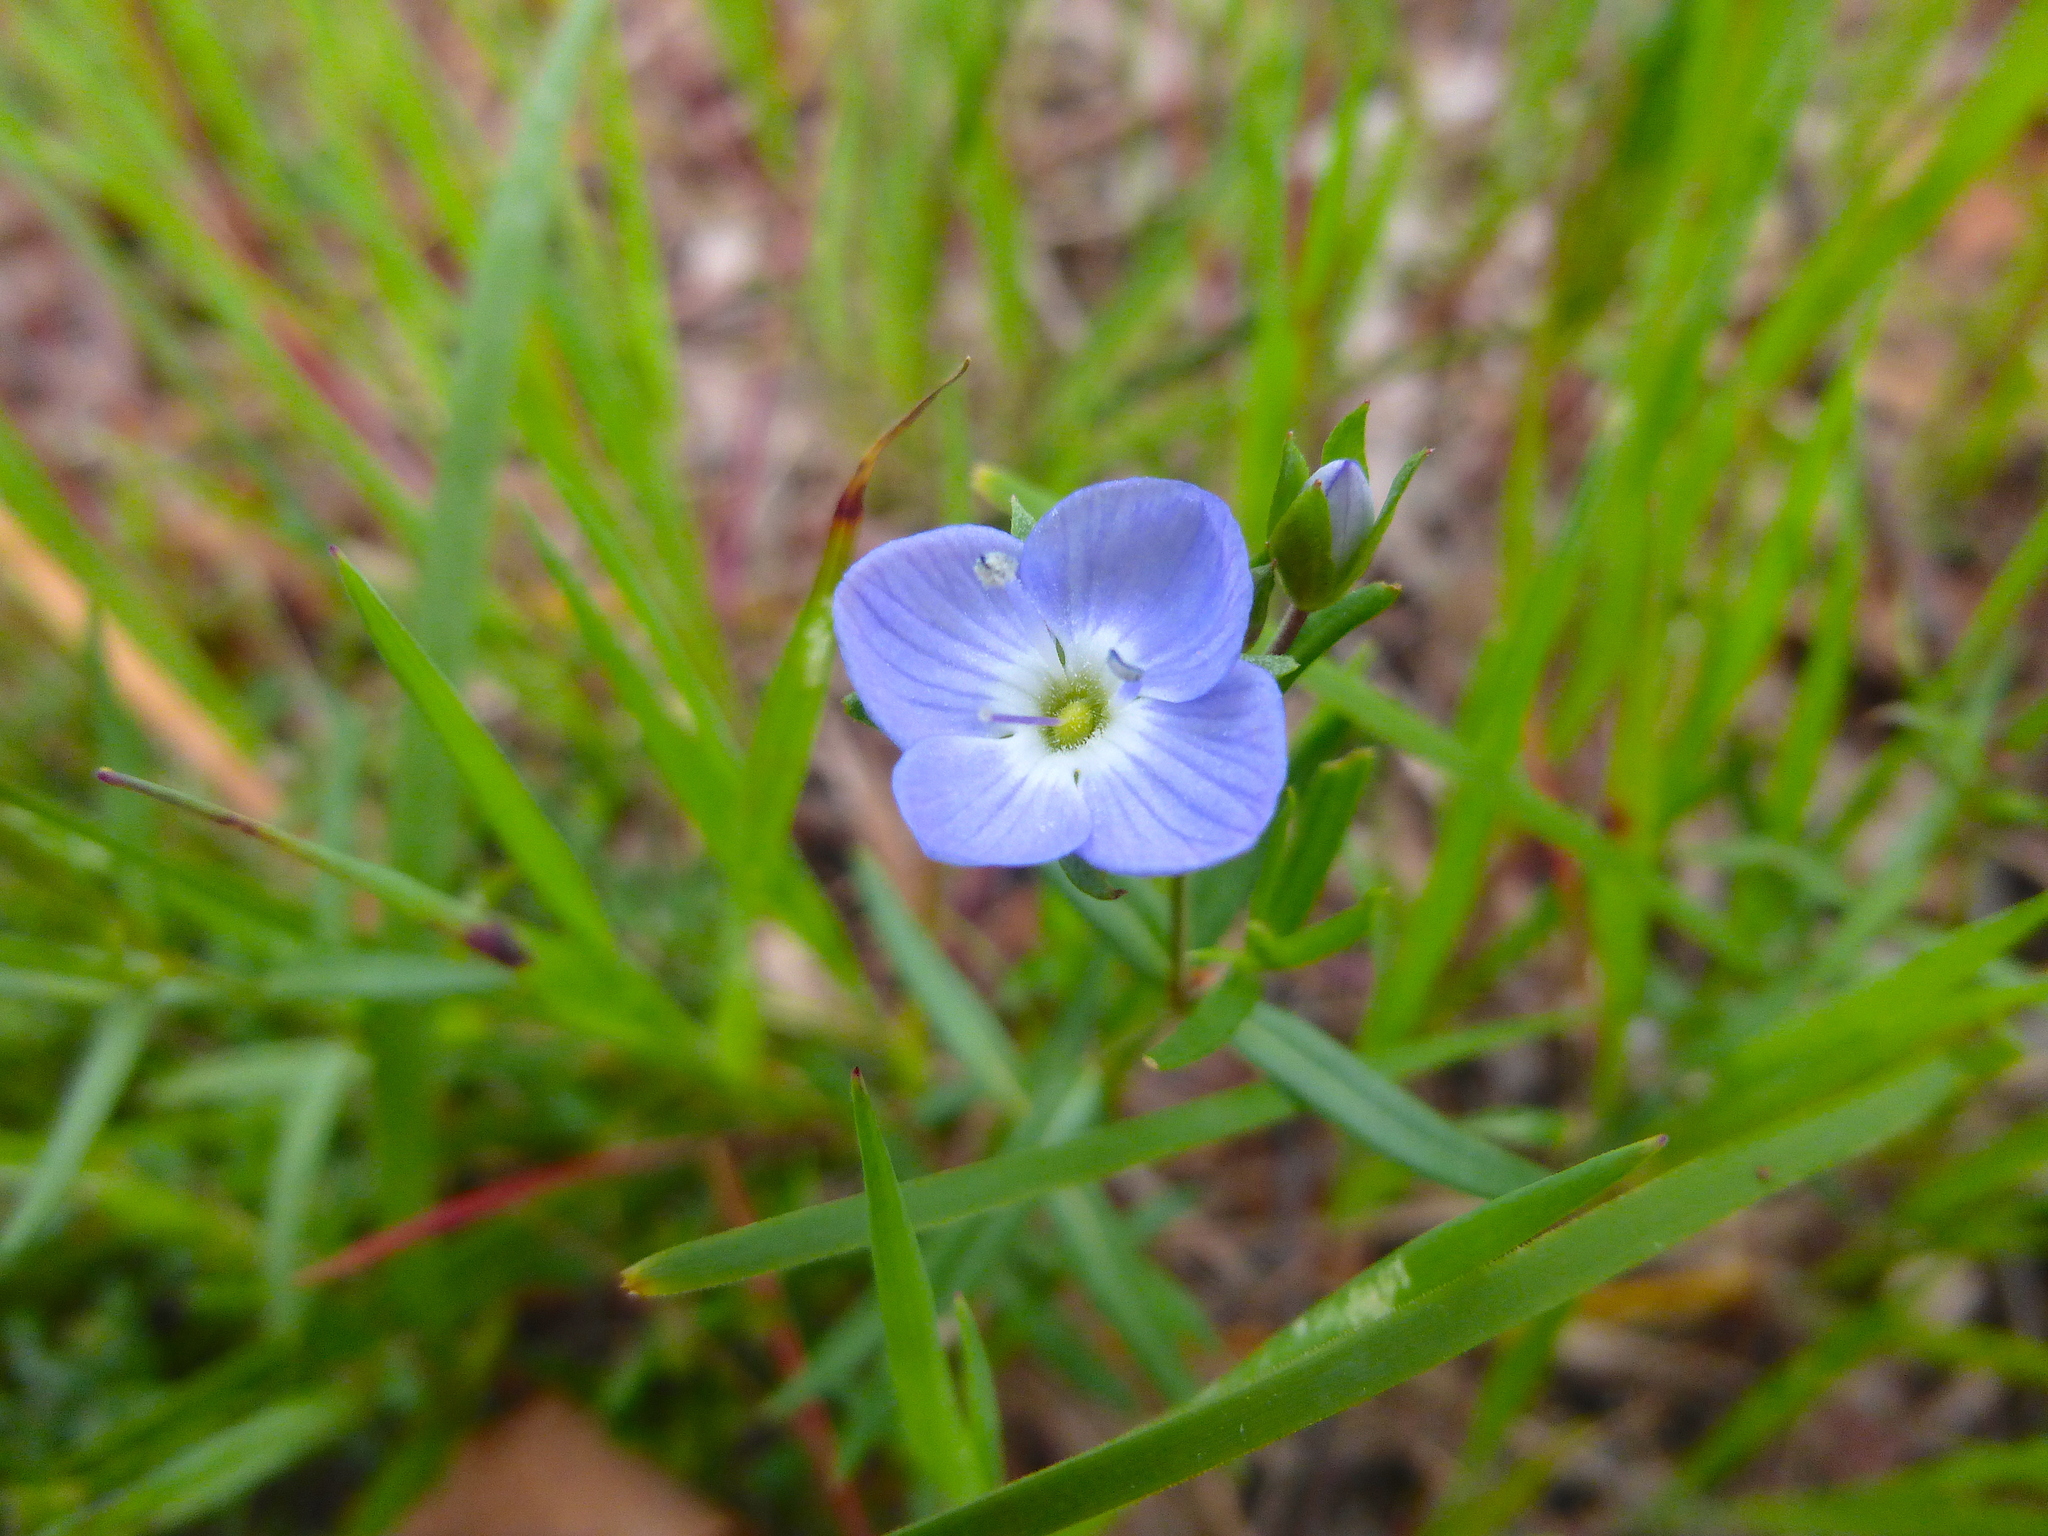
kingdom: Plantae
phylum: Tracheophyta
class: Magnoliopsida
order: Lamiales
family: Plantaginaceae
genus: Veronica
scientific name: Veronica gracilis
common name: Slender speedwell
